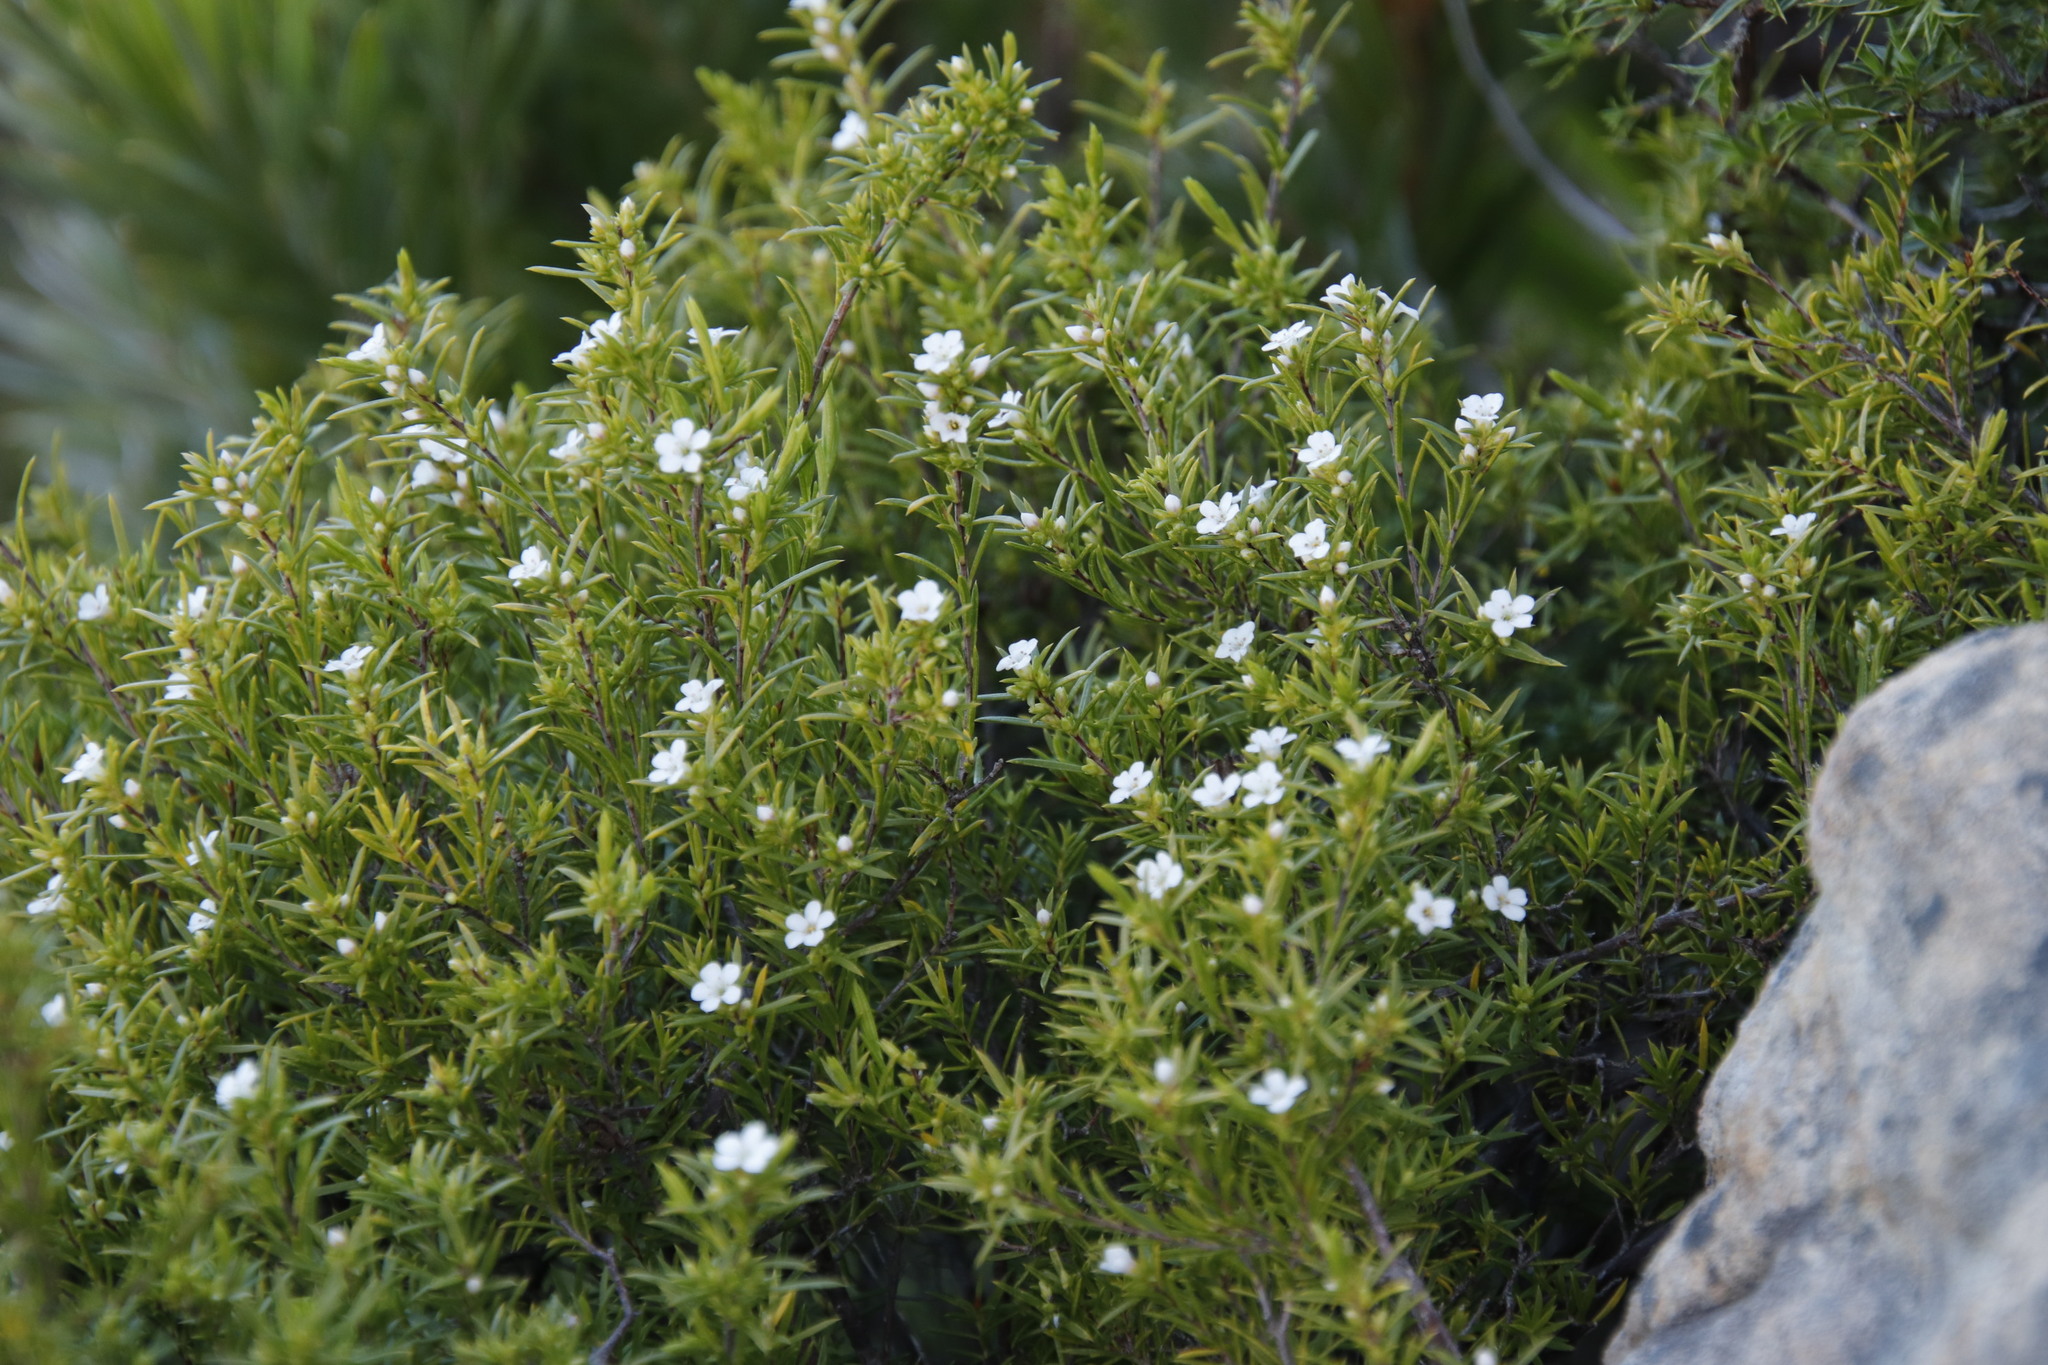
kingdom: Plantae
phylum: Tracheophyta
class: Magnoliopsida
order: Sapindales
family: Rutaceae
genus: Coleonema
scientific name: Coleonema album
